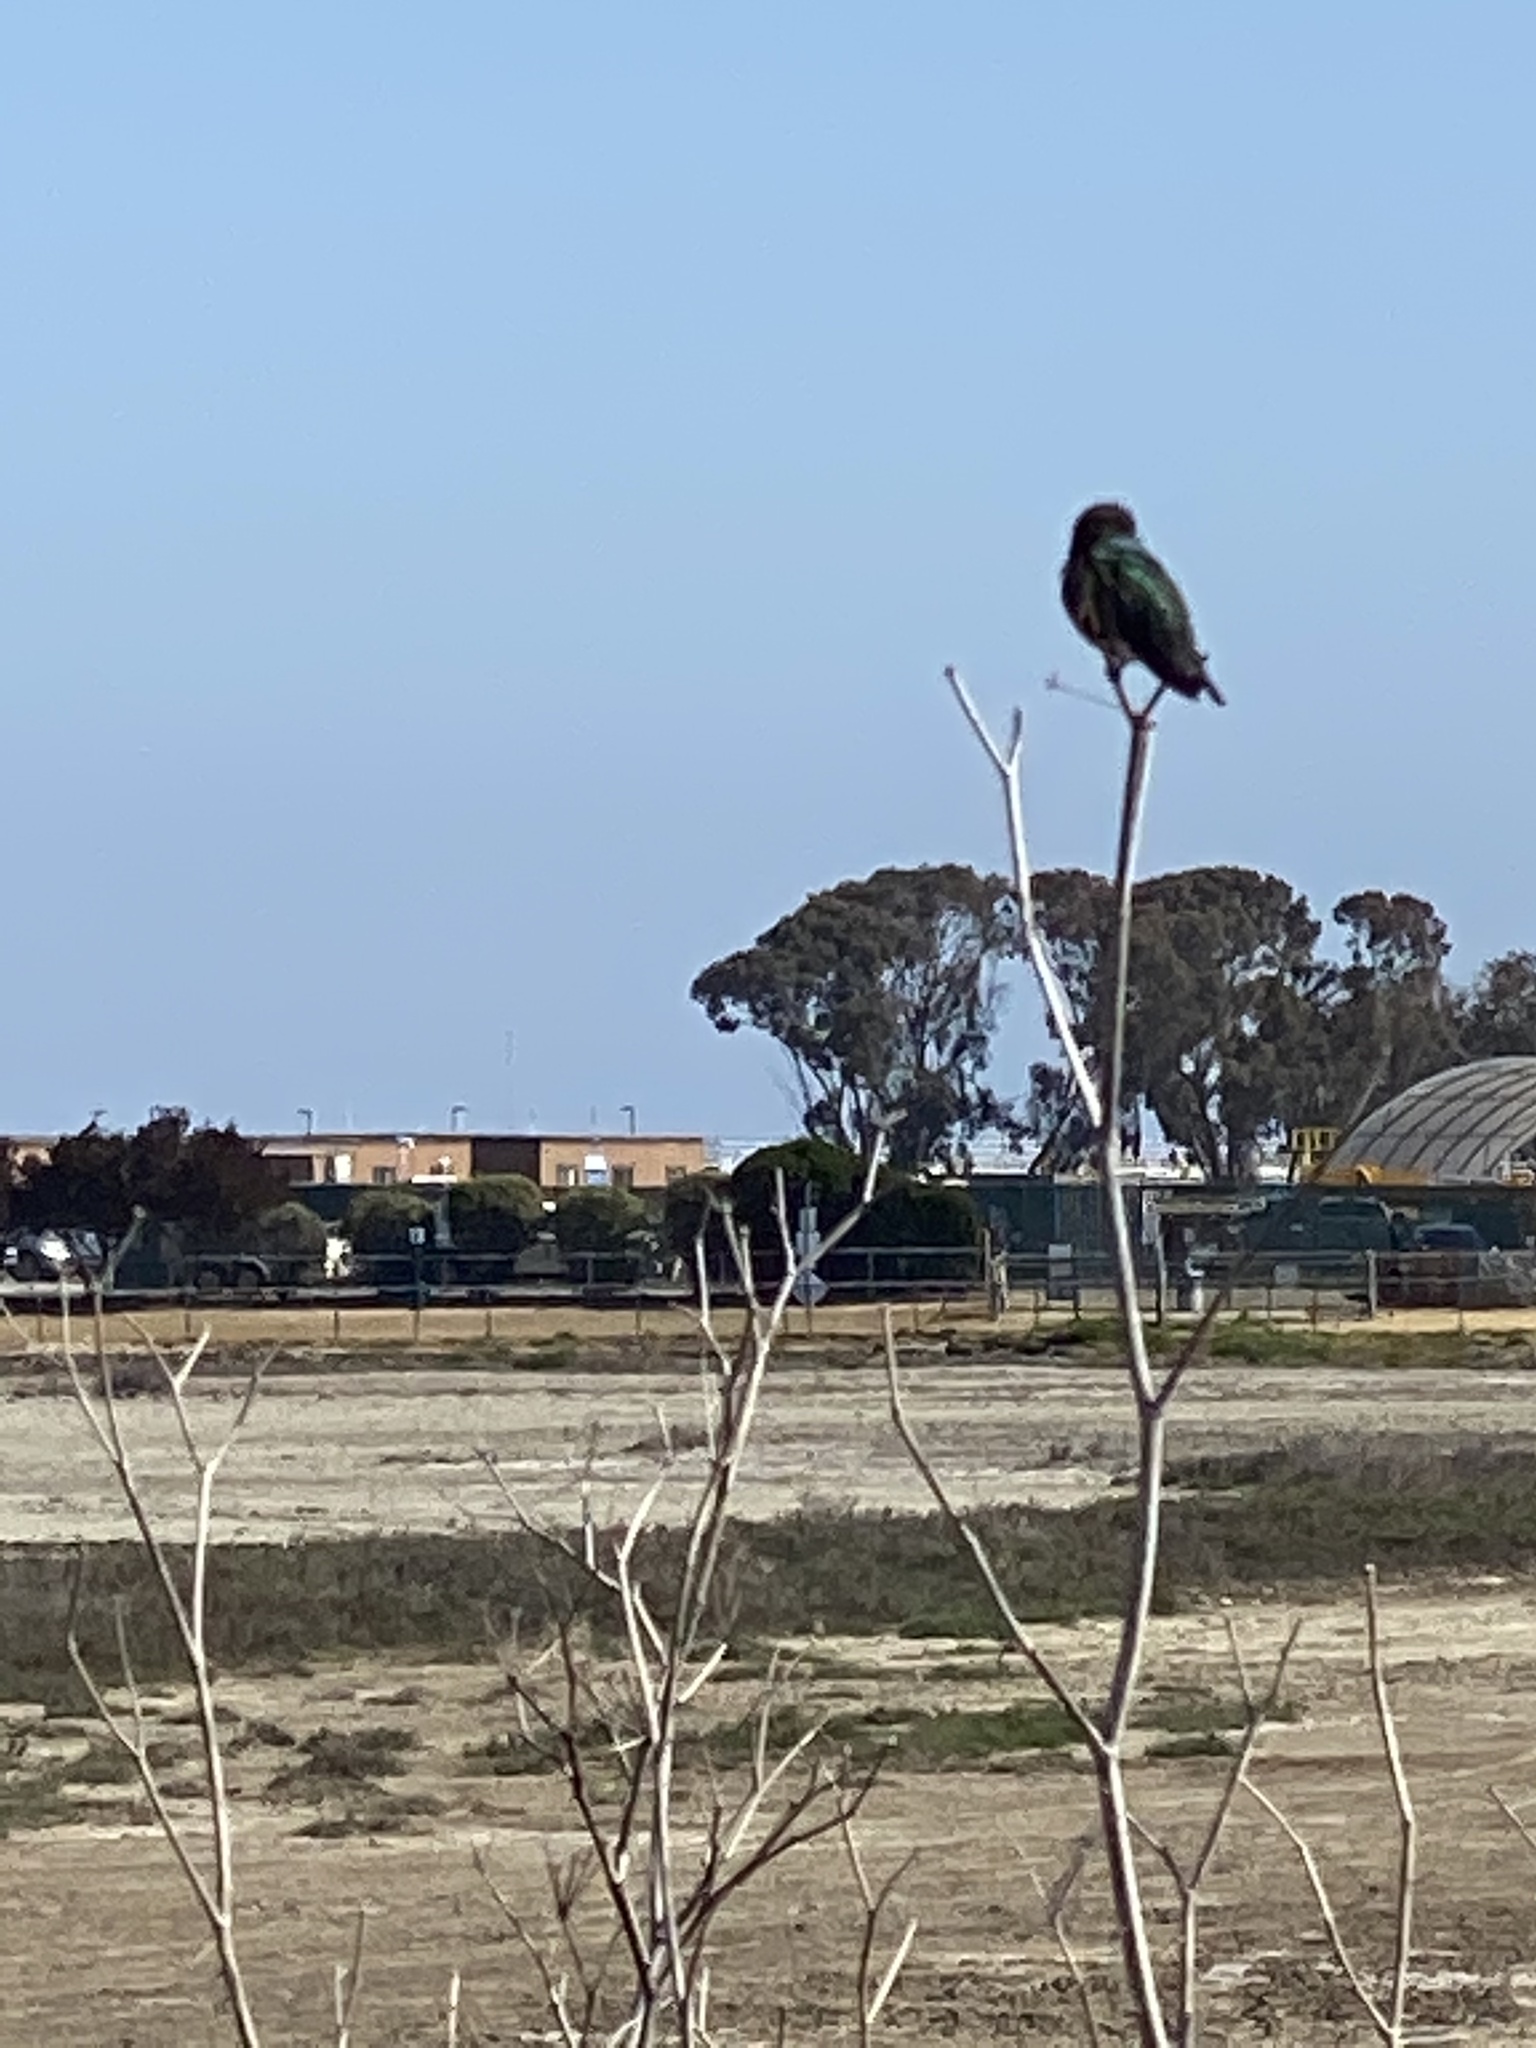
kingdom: Animalia
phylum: Chordata
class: Aves
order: Apodiformes
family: Trochilidae
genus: Calypte
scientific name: Calypte anna
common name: Anna's hummingbird
